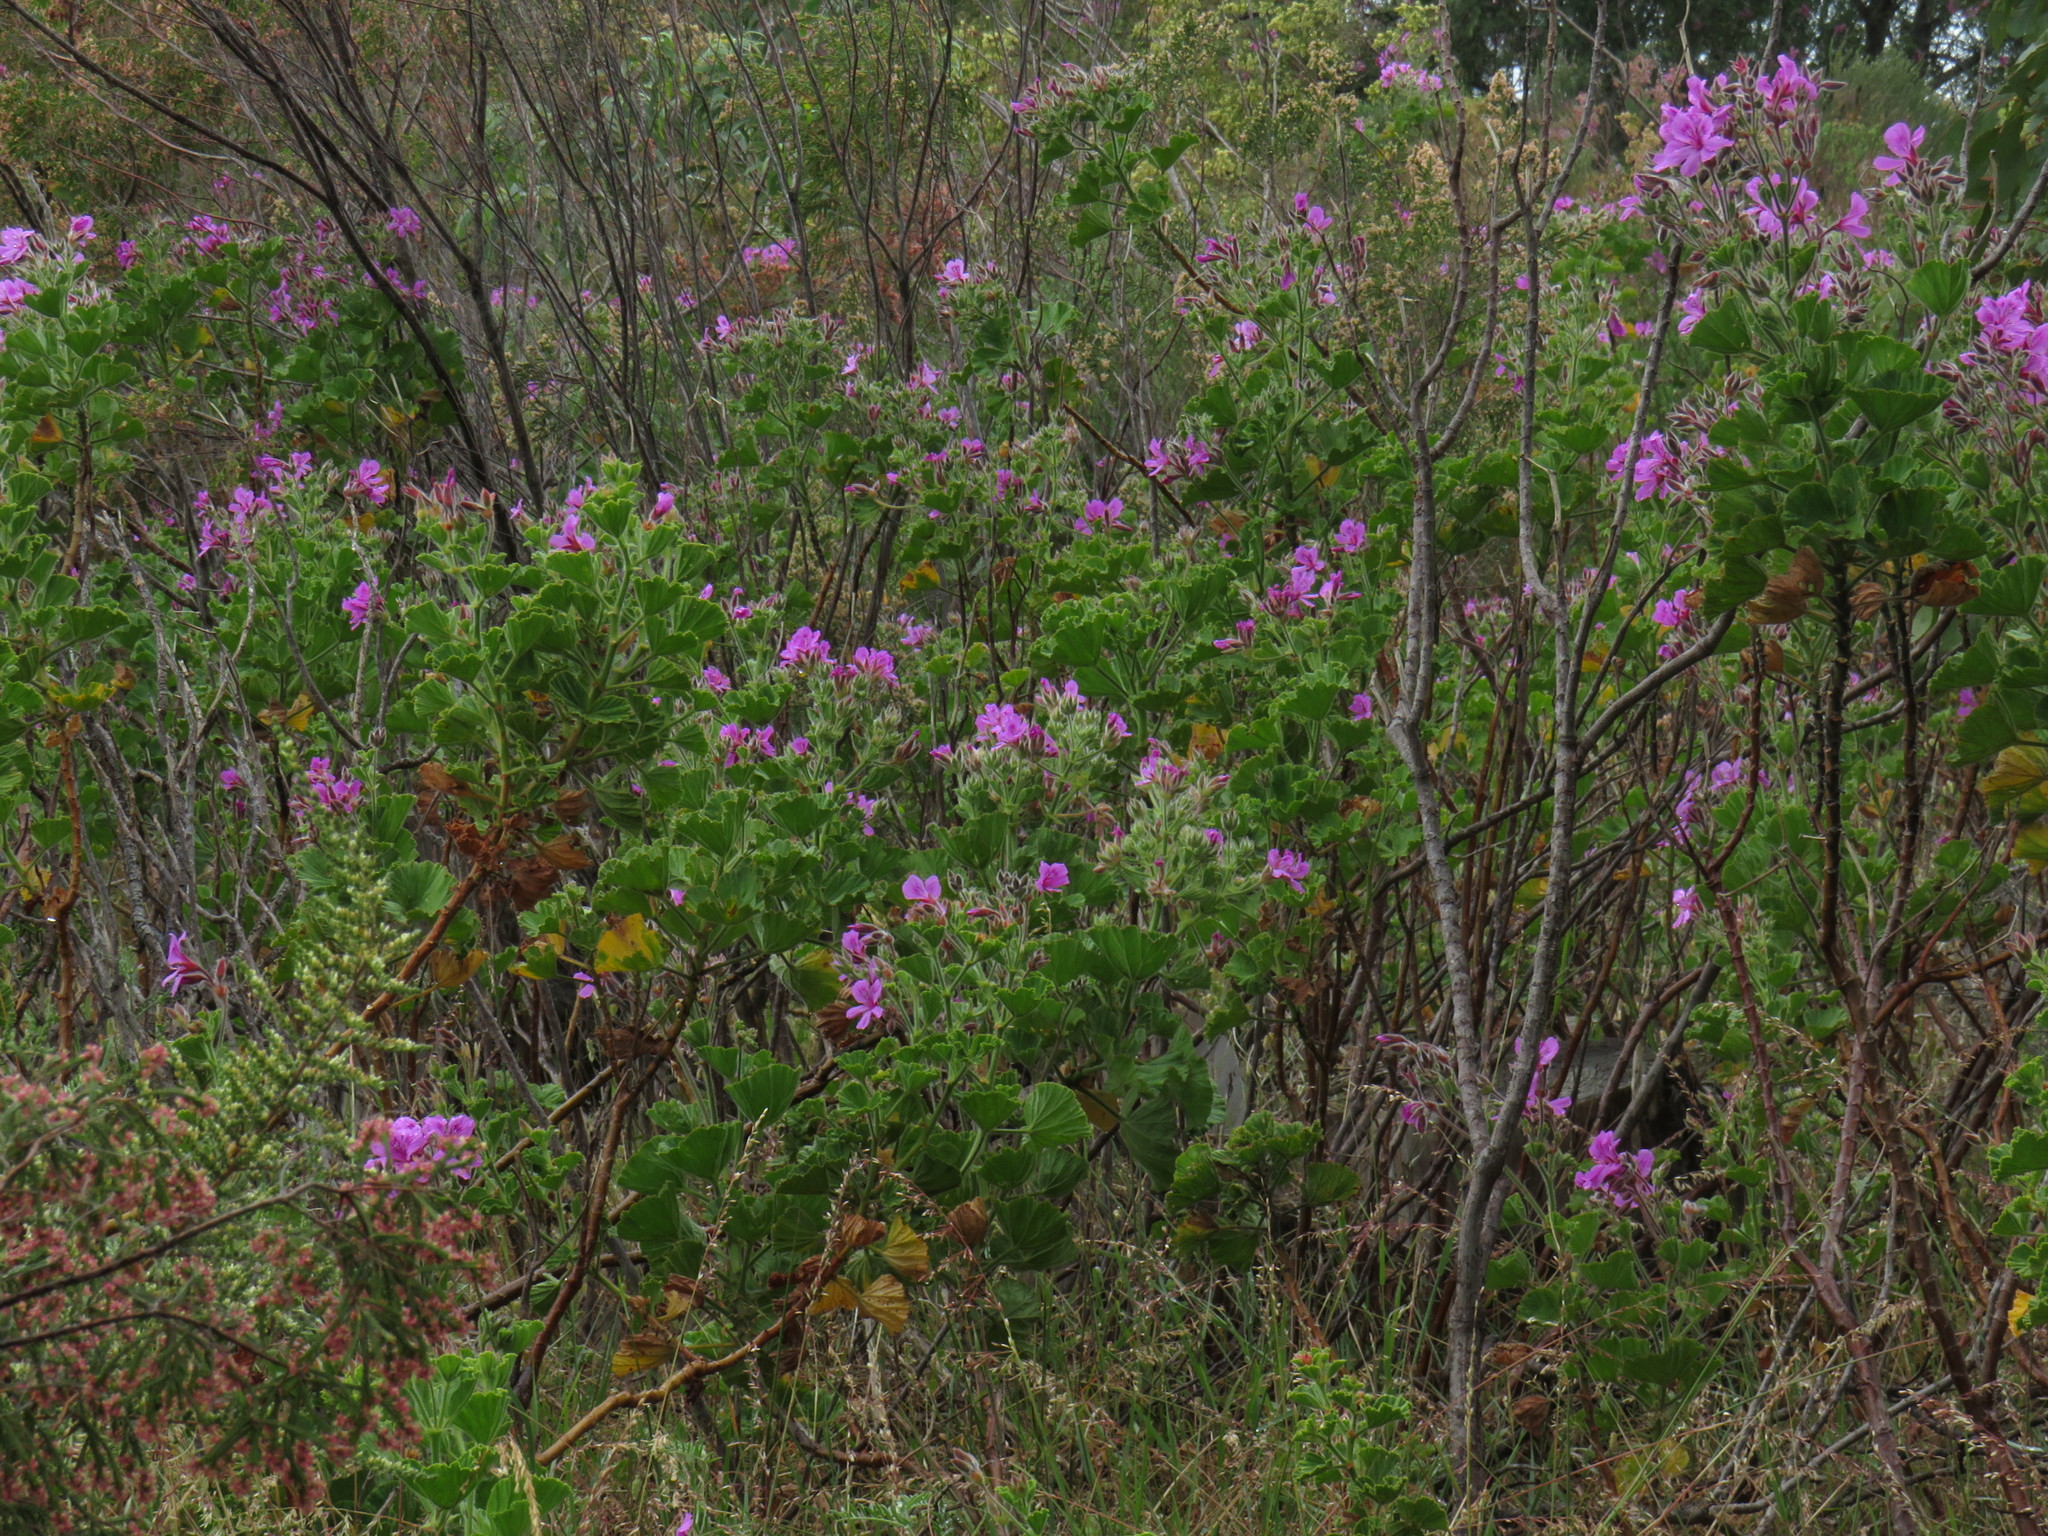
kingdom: Plantae
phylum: Tracheophyta
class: Magnoliopsida
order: Geraniales
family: Geraniaceae
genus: Pelargonium
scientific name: Pelargonium cucullatum
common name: Tree pelargonium
